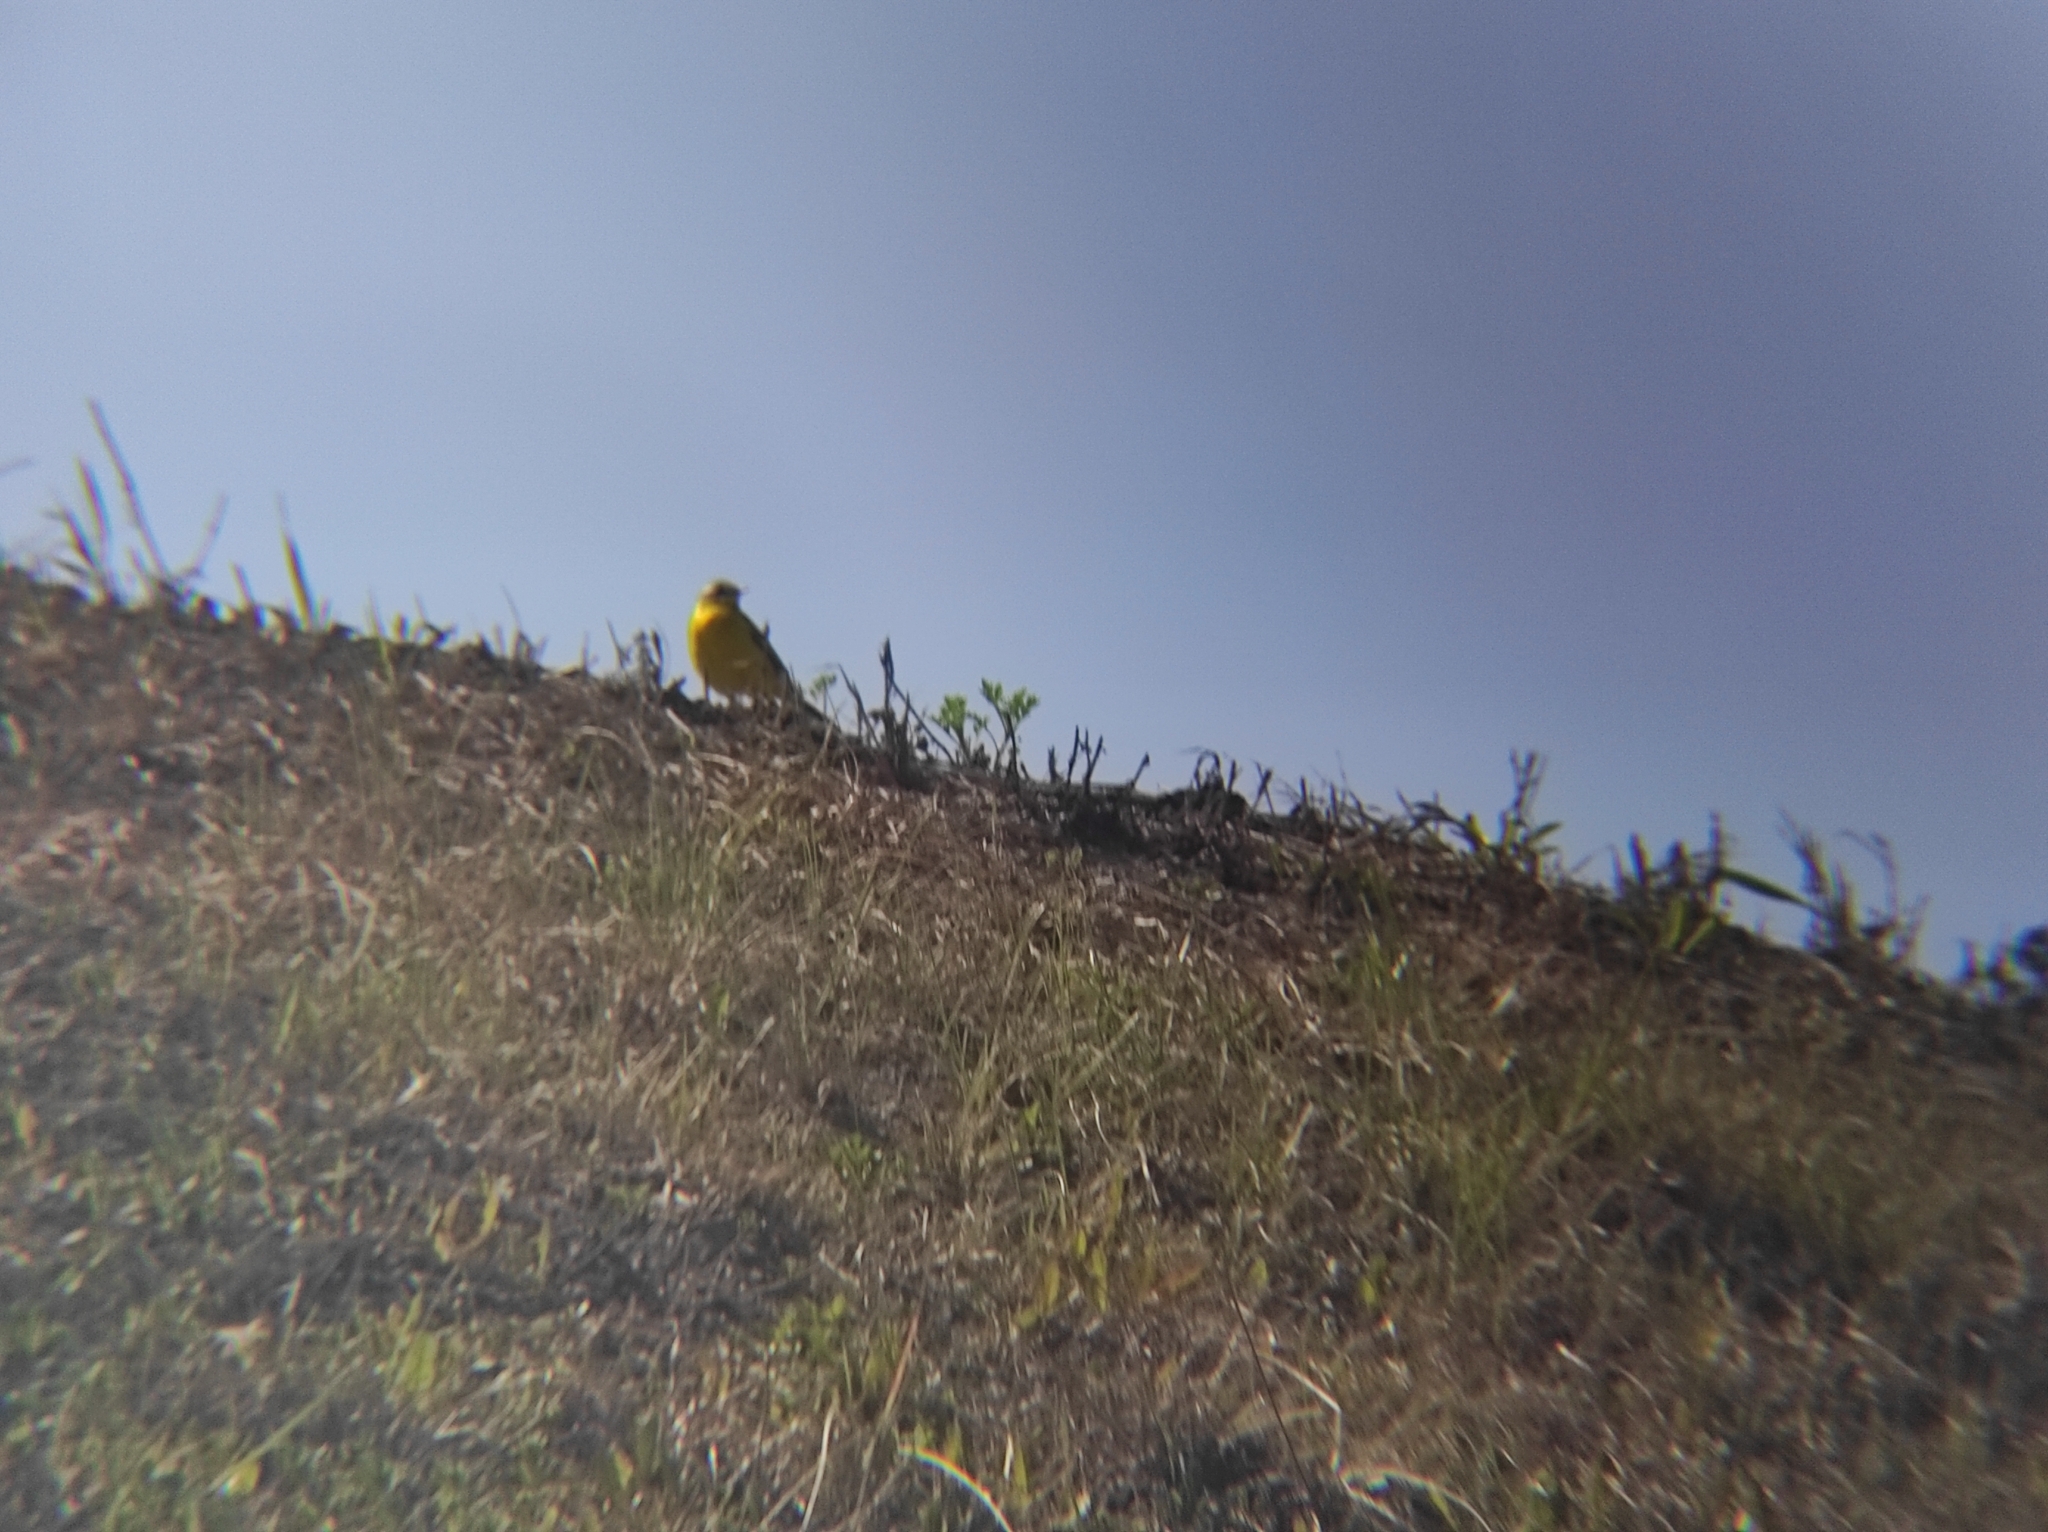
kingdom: Animalia
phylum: Chordata
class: Aves
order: Passeriformes
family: Motacillidae
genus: Motacilla
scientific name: Motacilla flava
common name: Western yellow wagtail
